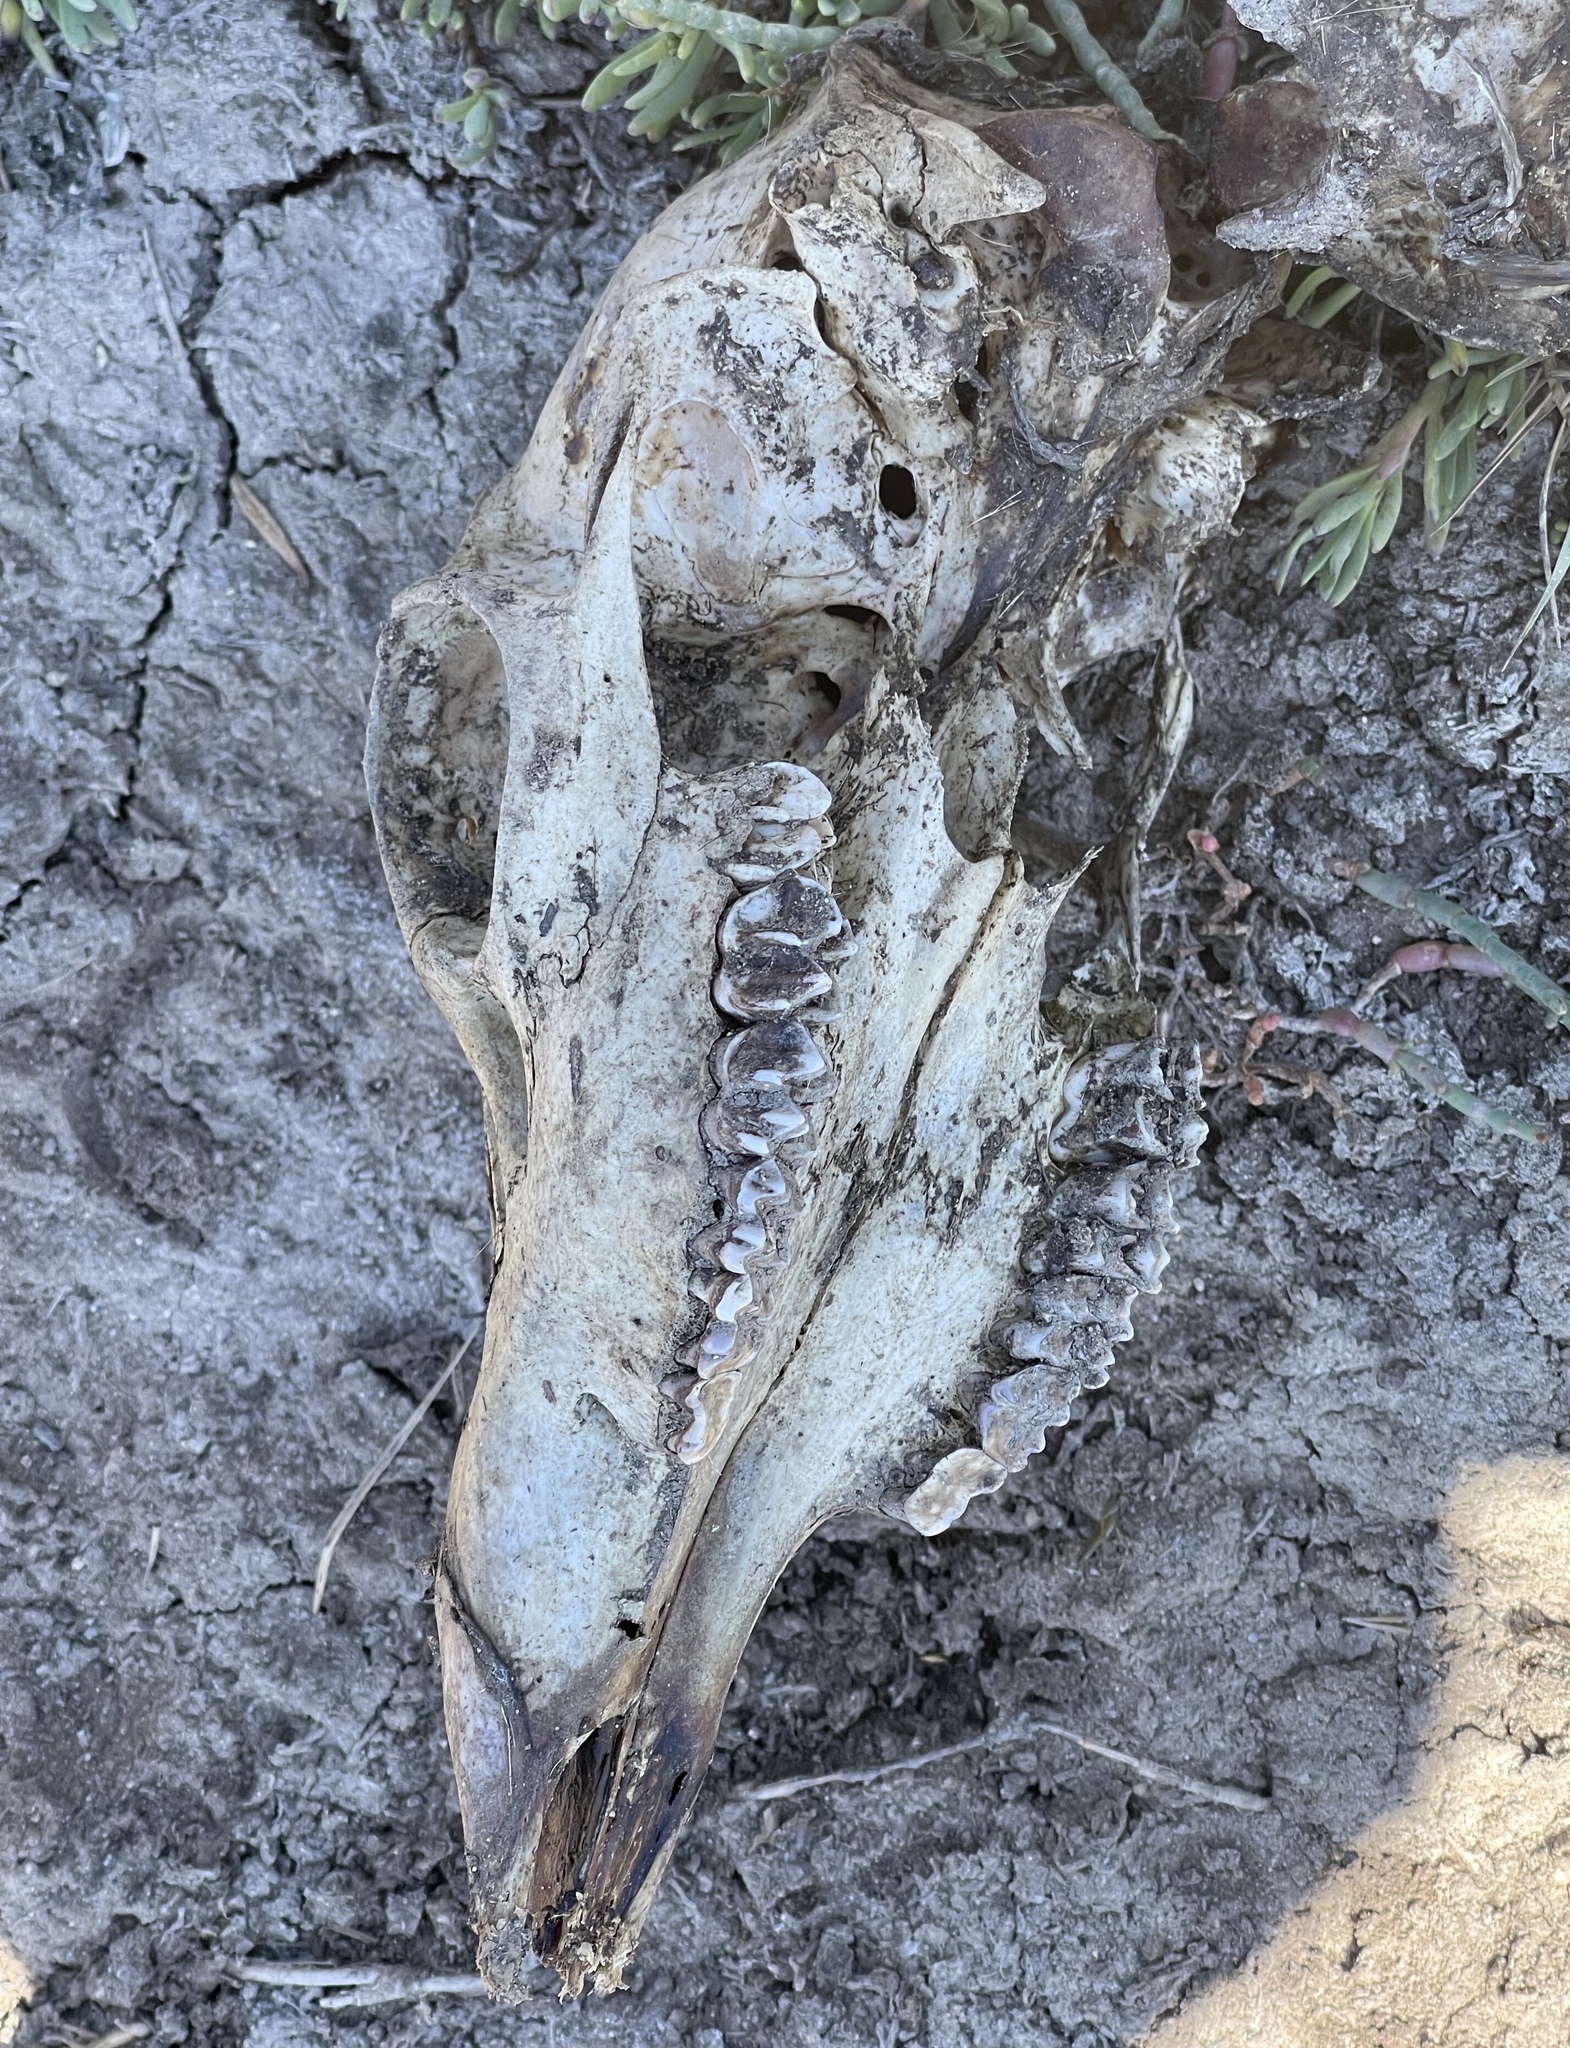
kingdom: Animalia
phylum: Chordata
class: Mammalia
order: Artiodactyla
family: Cervidae
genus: Odocoileus
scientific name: Odocoileus hemionus
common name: Mule deer
